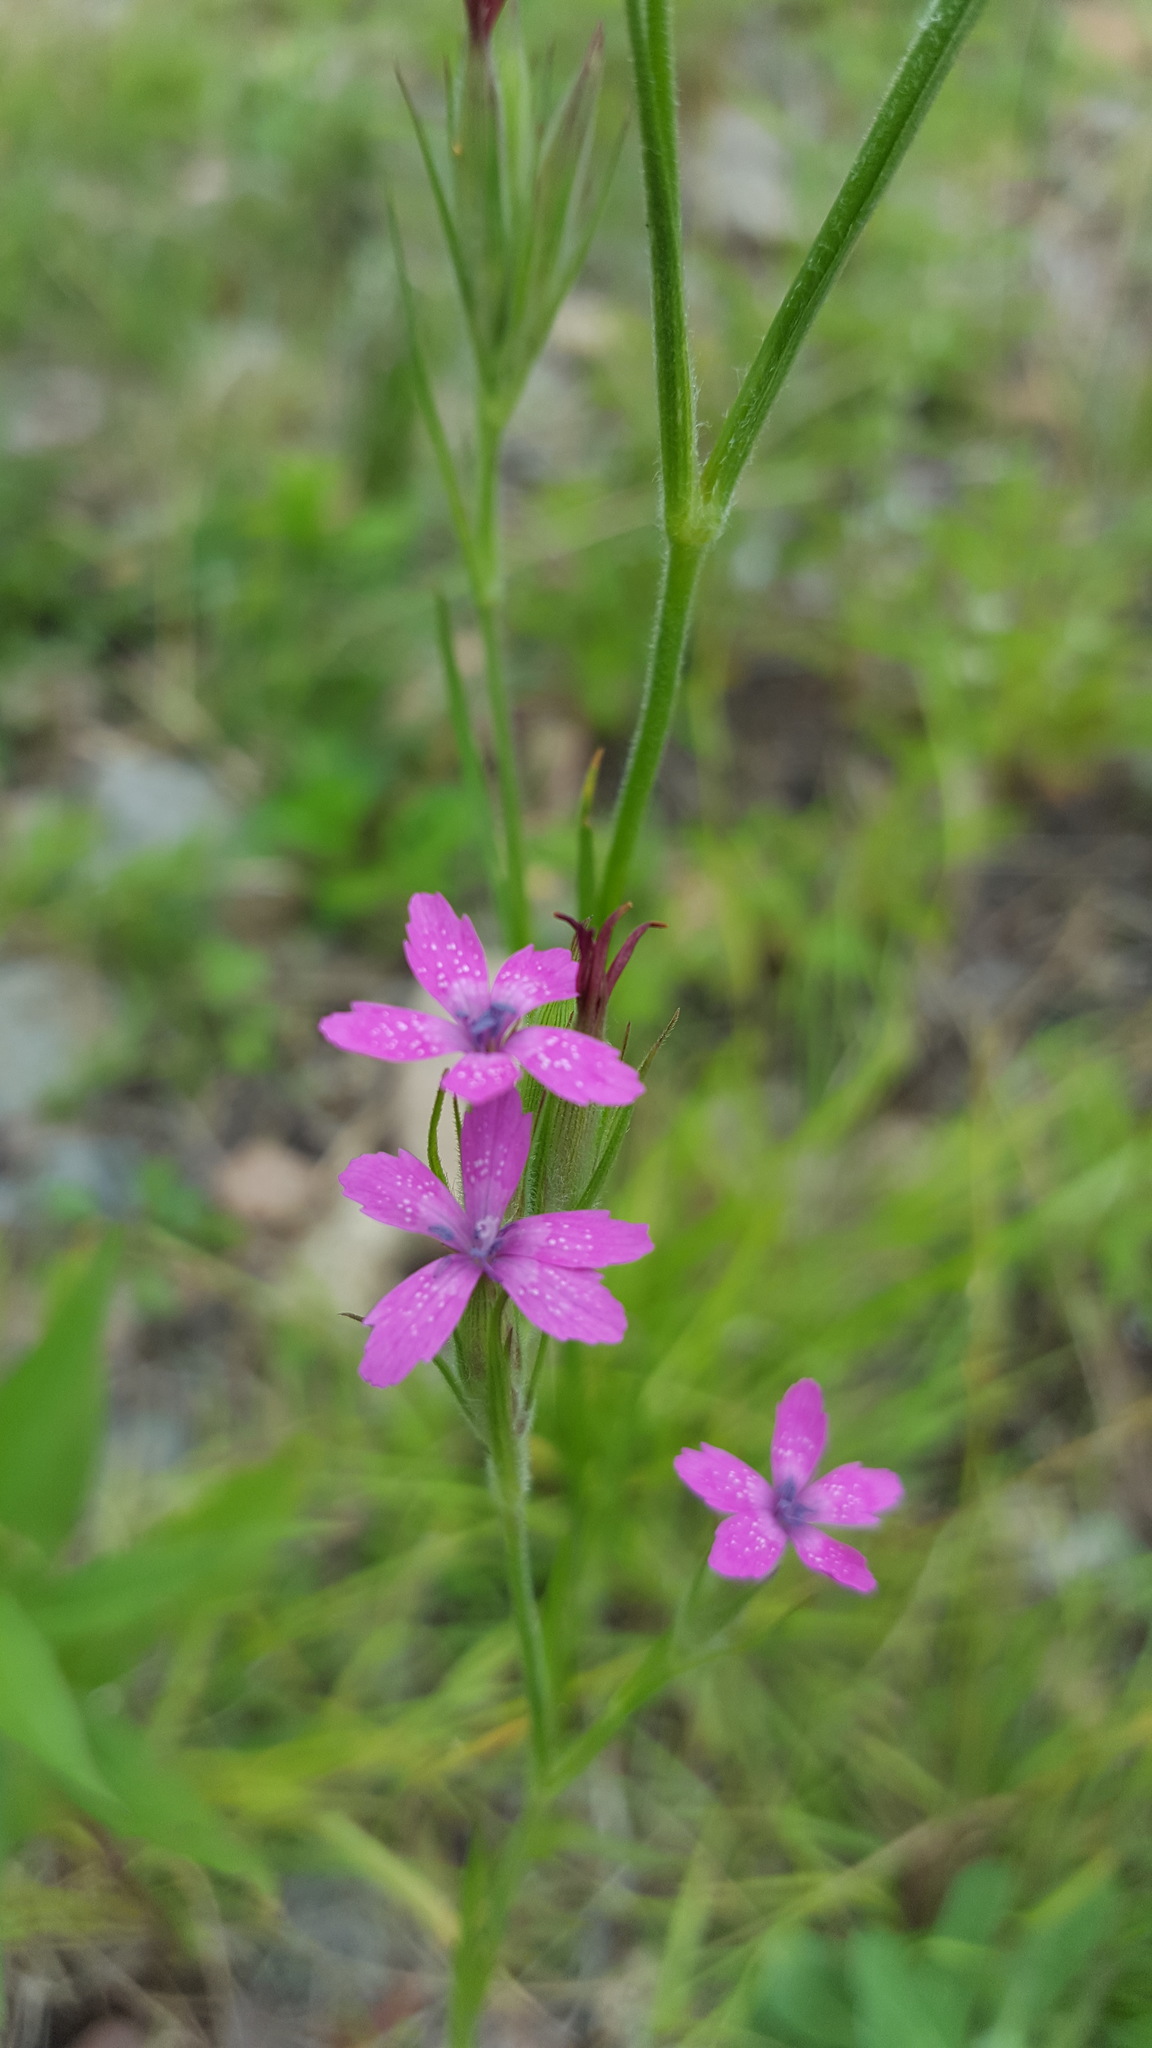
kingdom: Plantae
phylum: Tracheophyta
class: Magnoliopsida
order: Caryophyllales
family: Caryophyllaceae
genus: Dianthus
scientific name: Dianthus armeria
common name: Deptford pink
